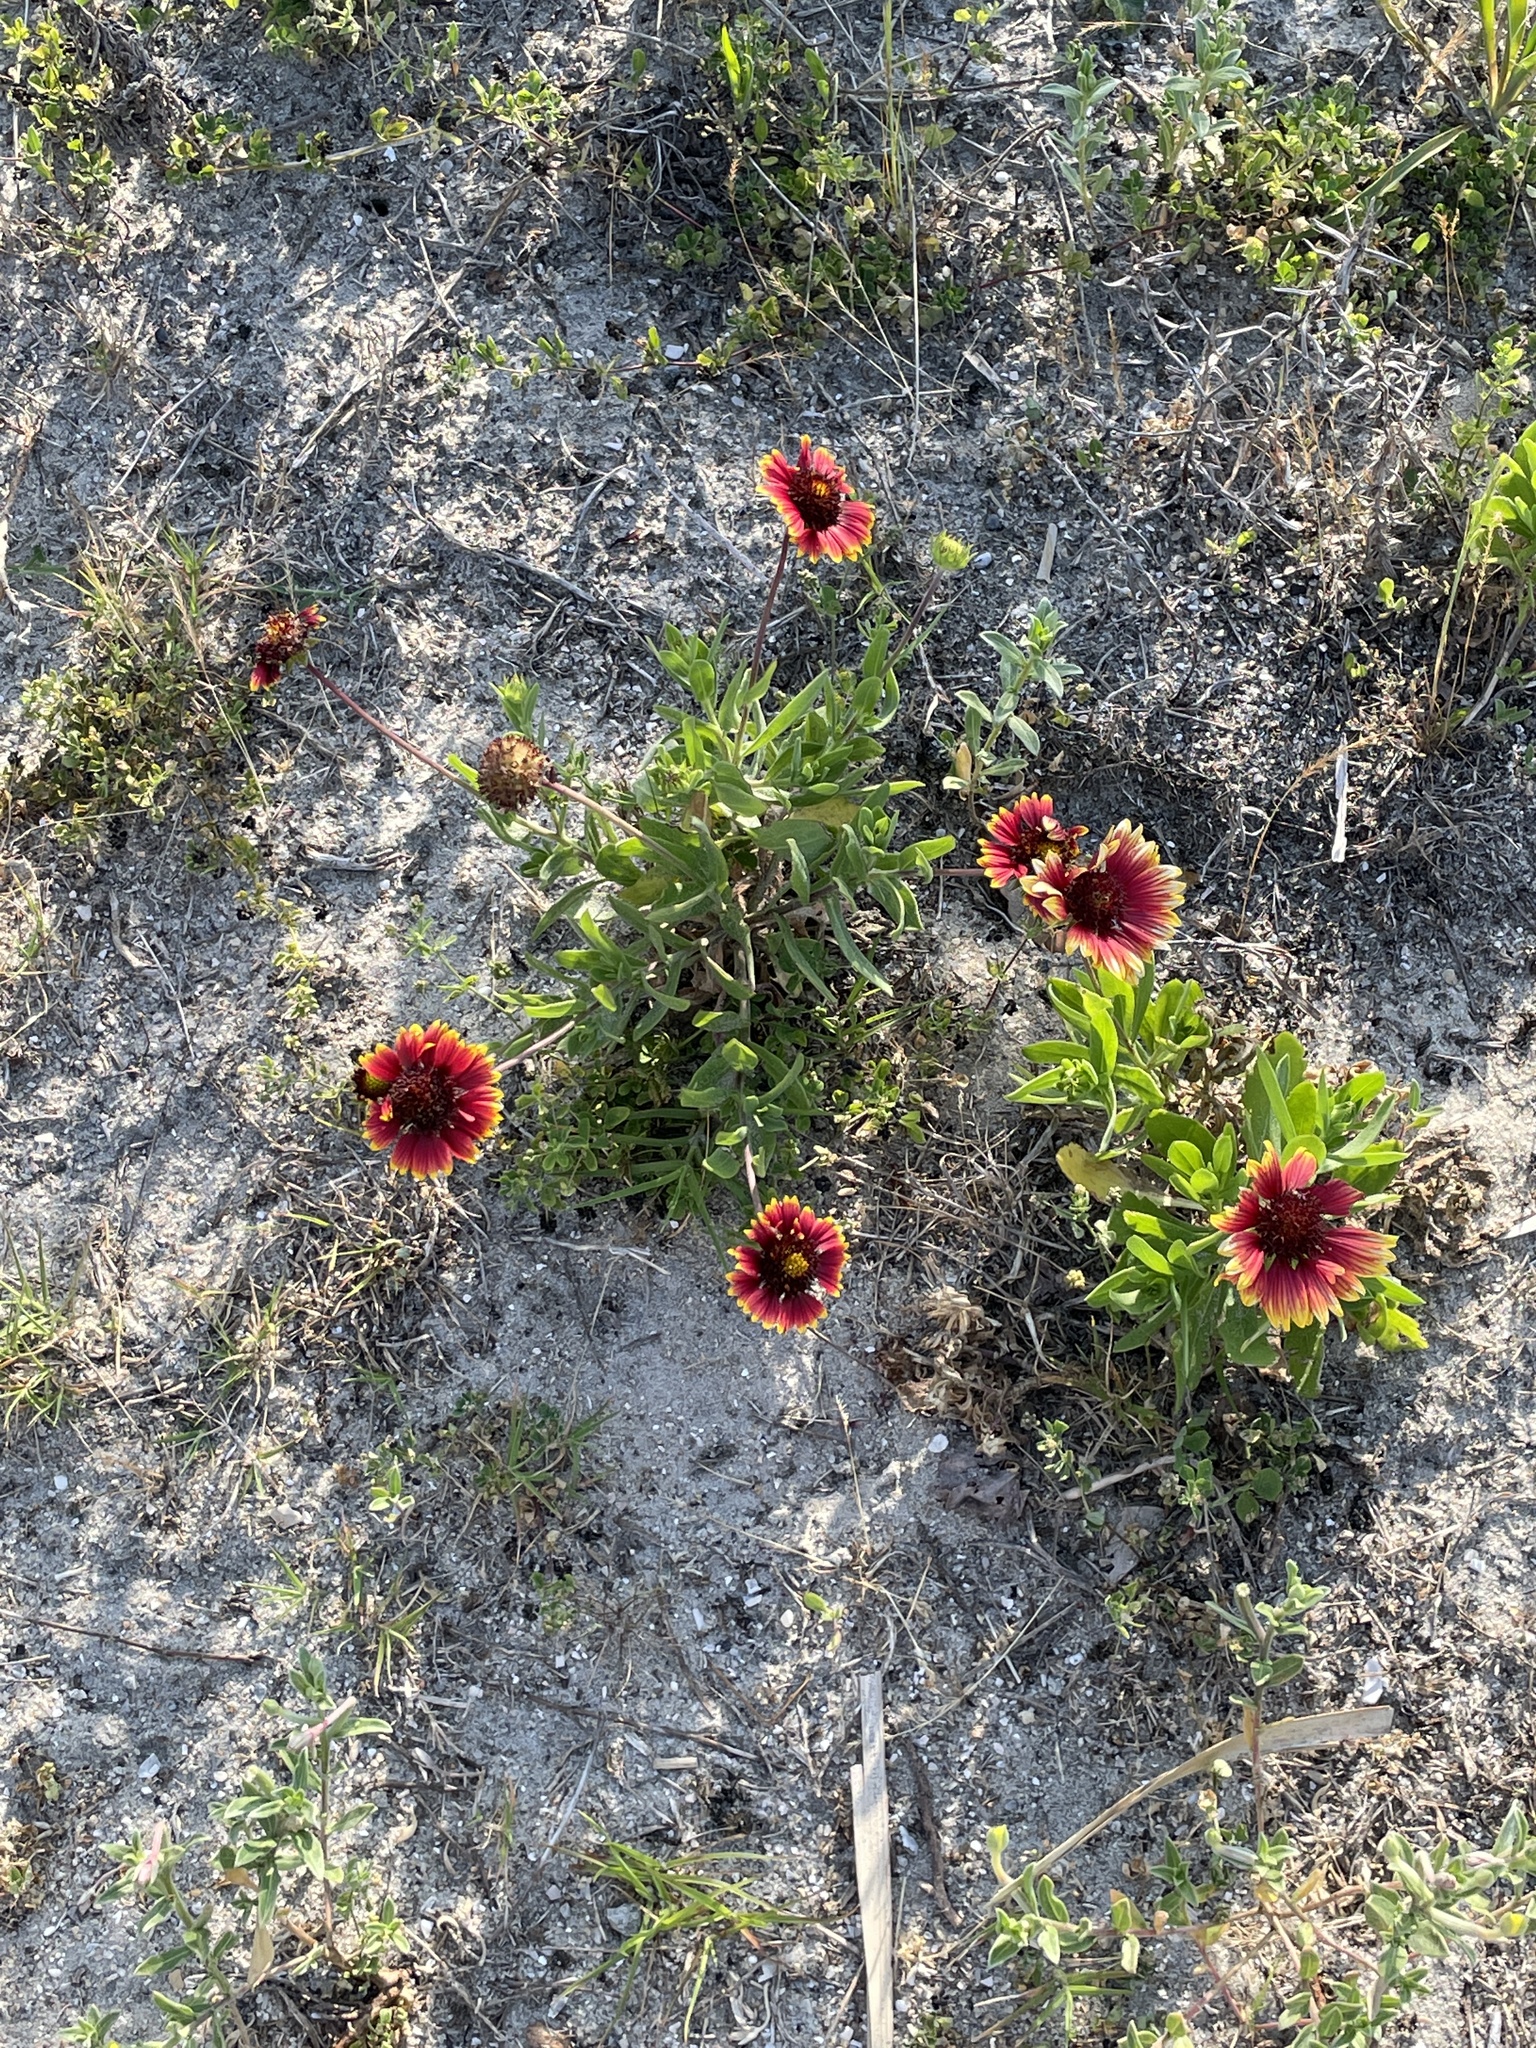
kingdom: Plantae
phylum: Tracheophyta
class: Magnoliopsida
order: Asterales
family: Asteraceae
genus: Gaillardia
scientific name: Gaillardia pulchella
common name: Firewheel
